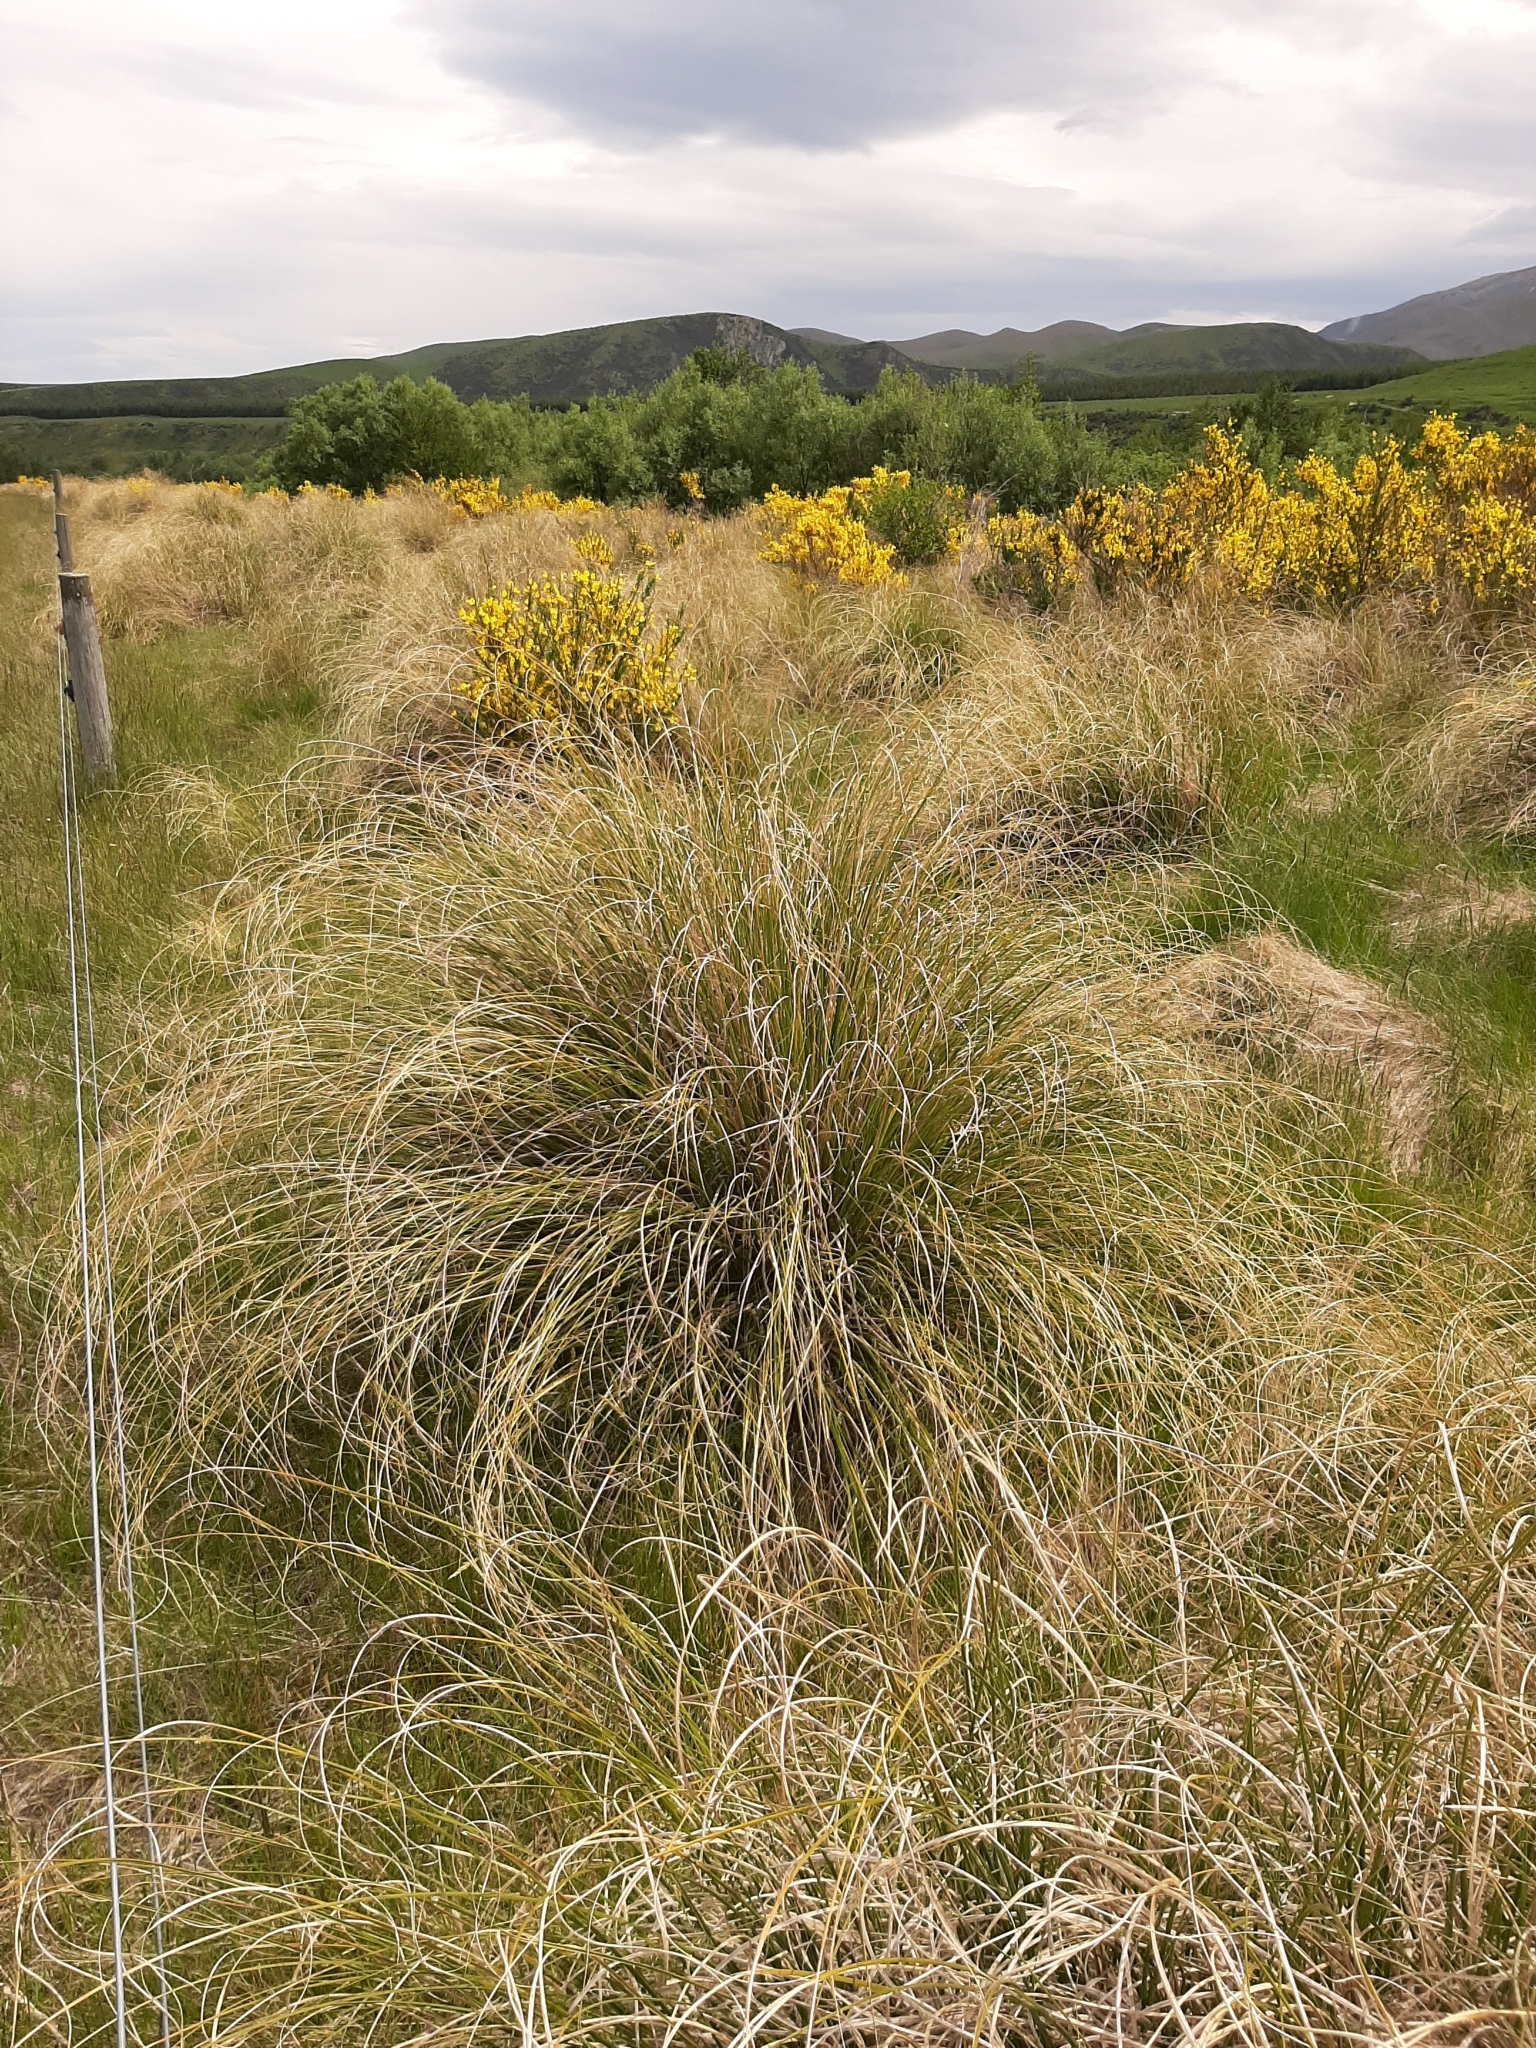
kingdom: Plantae
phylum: Tracheophyta
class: Liliopsida
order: Poales
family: Poaceae
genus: Chionochloa
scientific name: Chionochloa rigida
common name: Narrow leaved snow tussock
